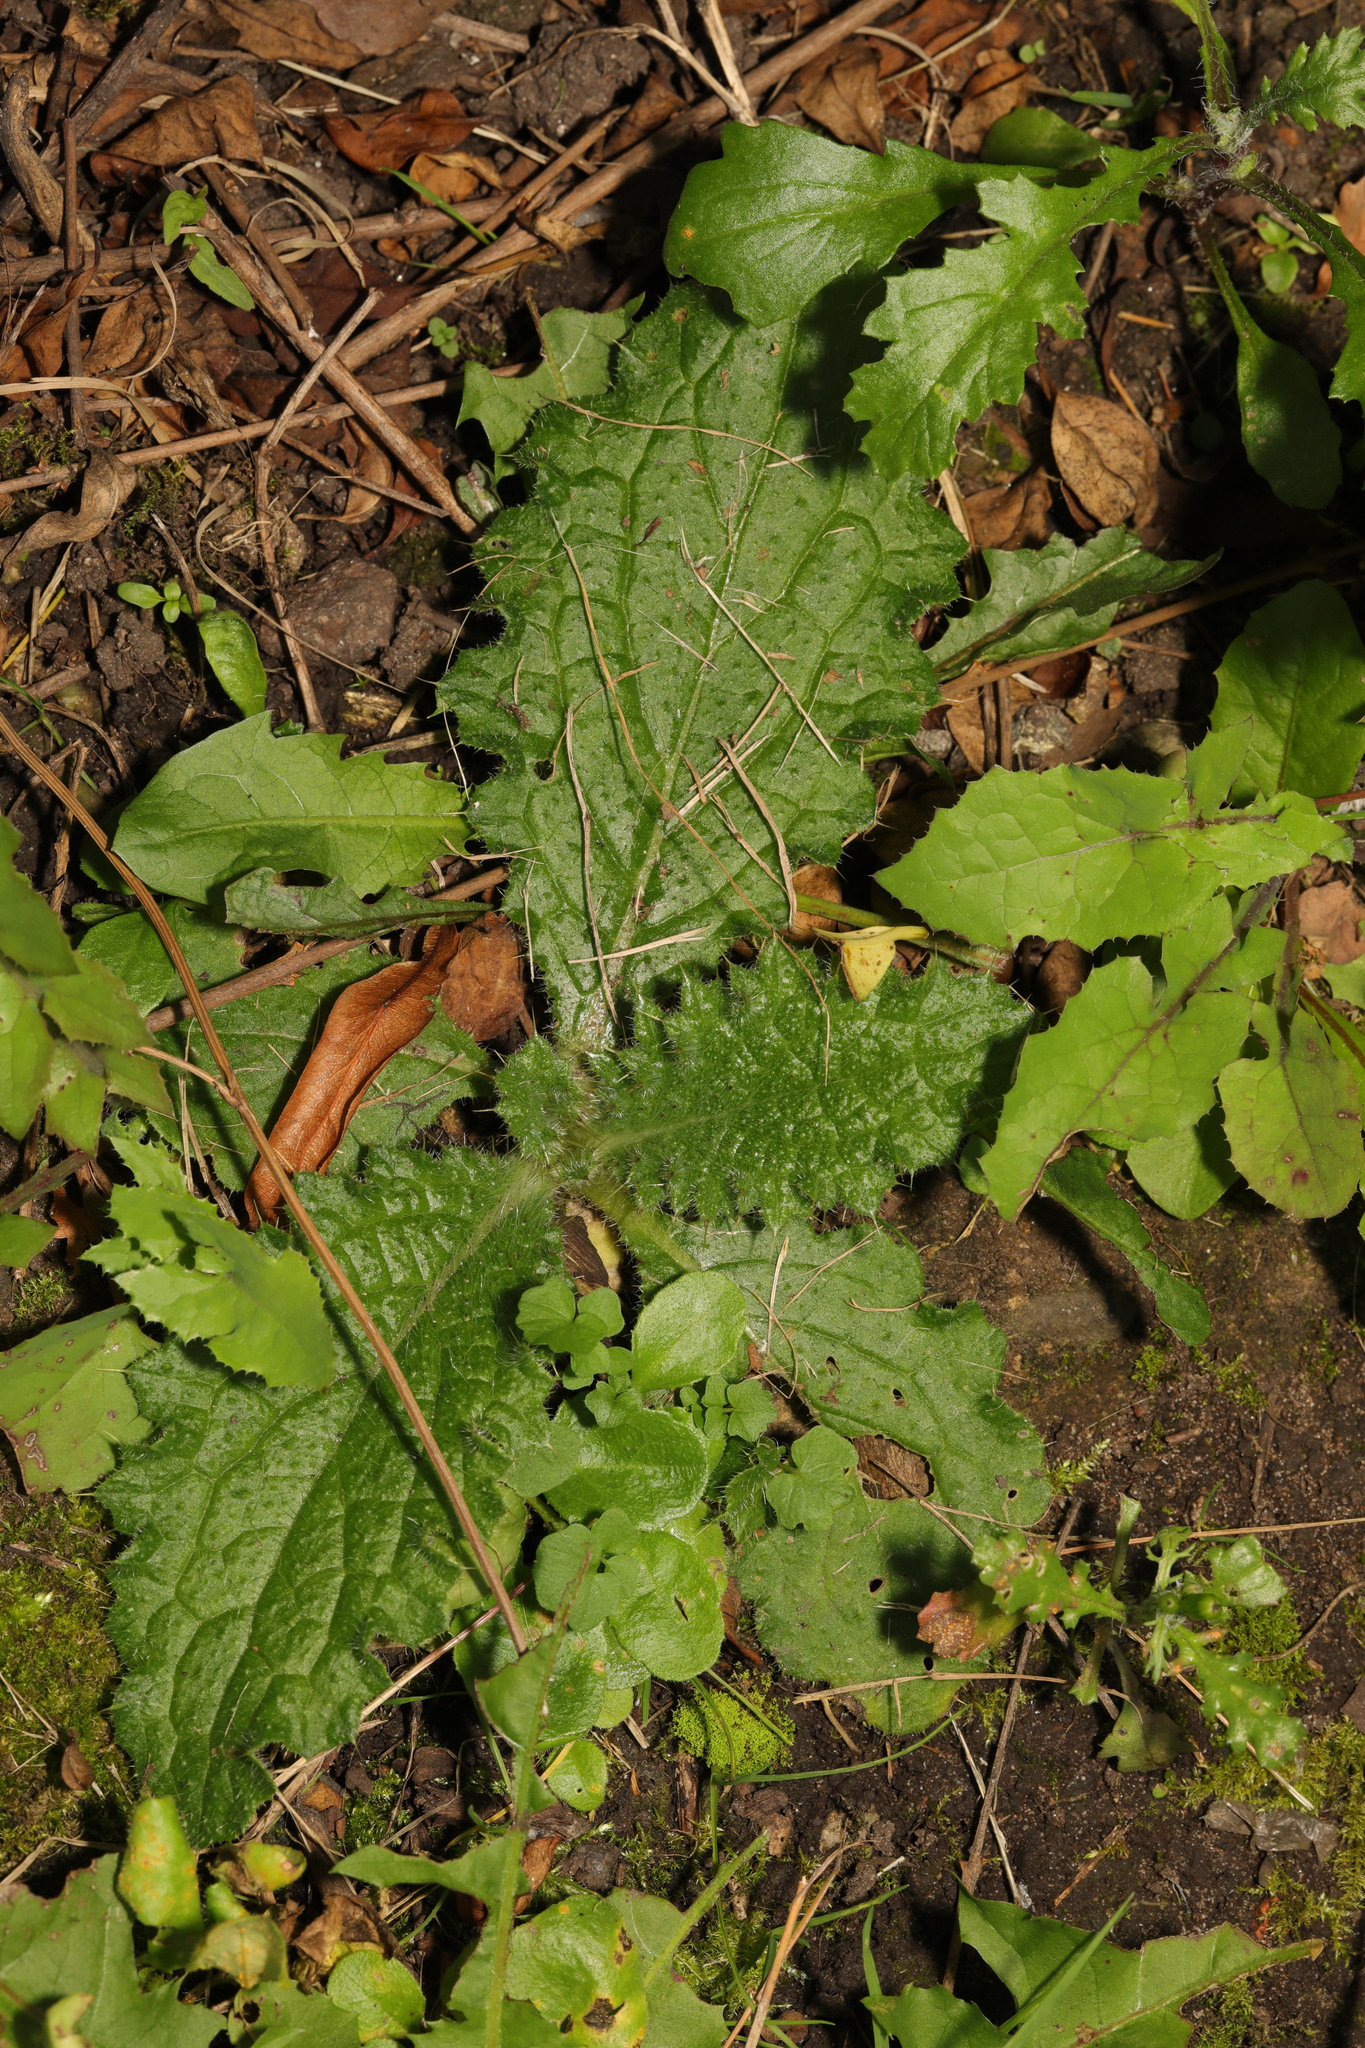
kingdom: Plantae
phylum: Tracheophyta
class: Magnoliopsida
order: Asterales
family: Asteraceae
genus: Cirsium
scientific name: Cirsium vulgare
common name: Bull thistle
